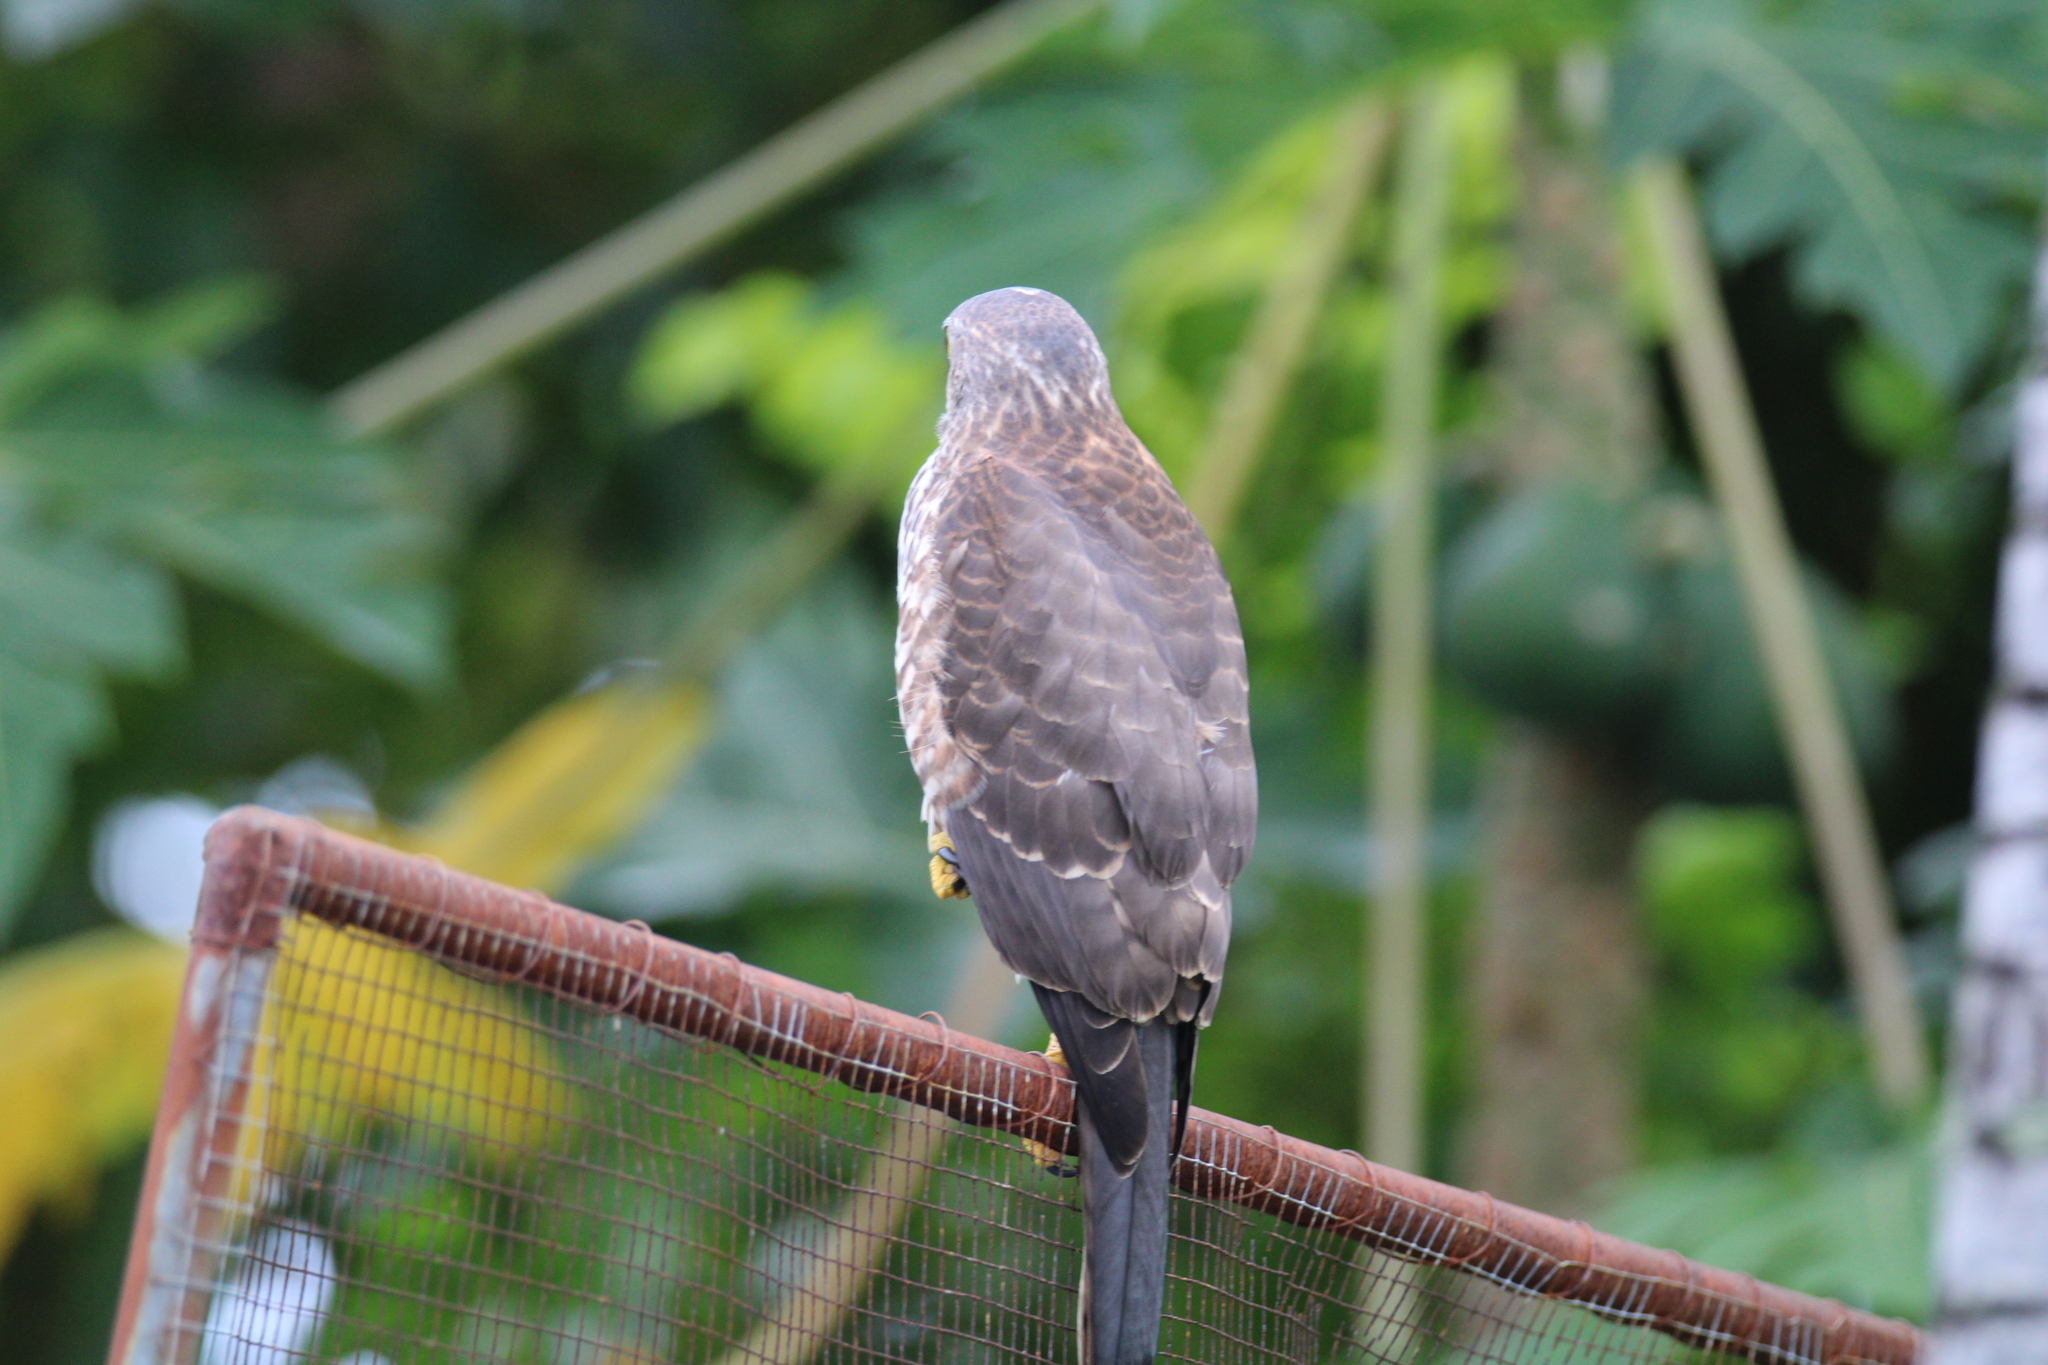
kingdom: Animalia
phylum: Chordata
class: Aves
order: Accipitriformes
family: Accipitridae
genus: Accipiter
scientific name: Accipiter rufitorques
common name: Fiji goshawk
